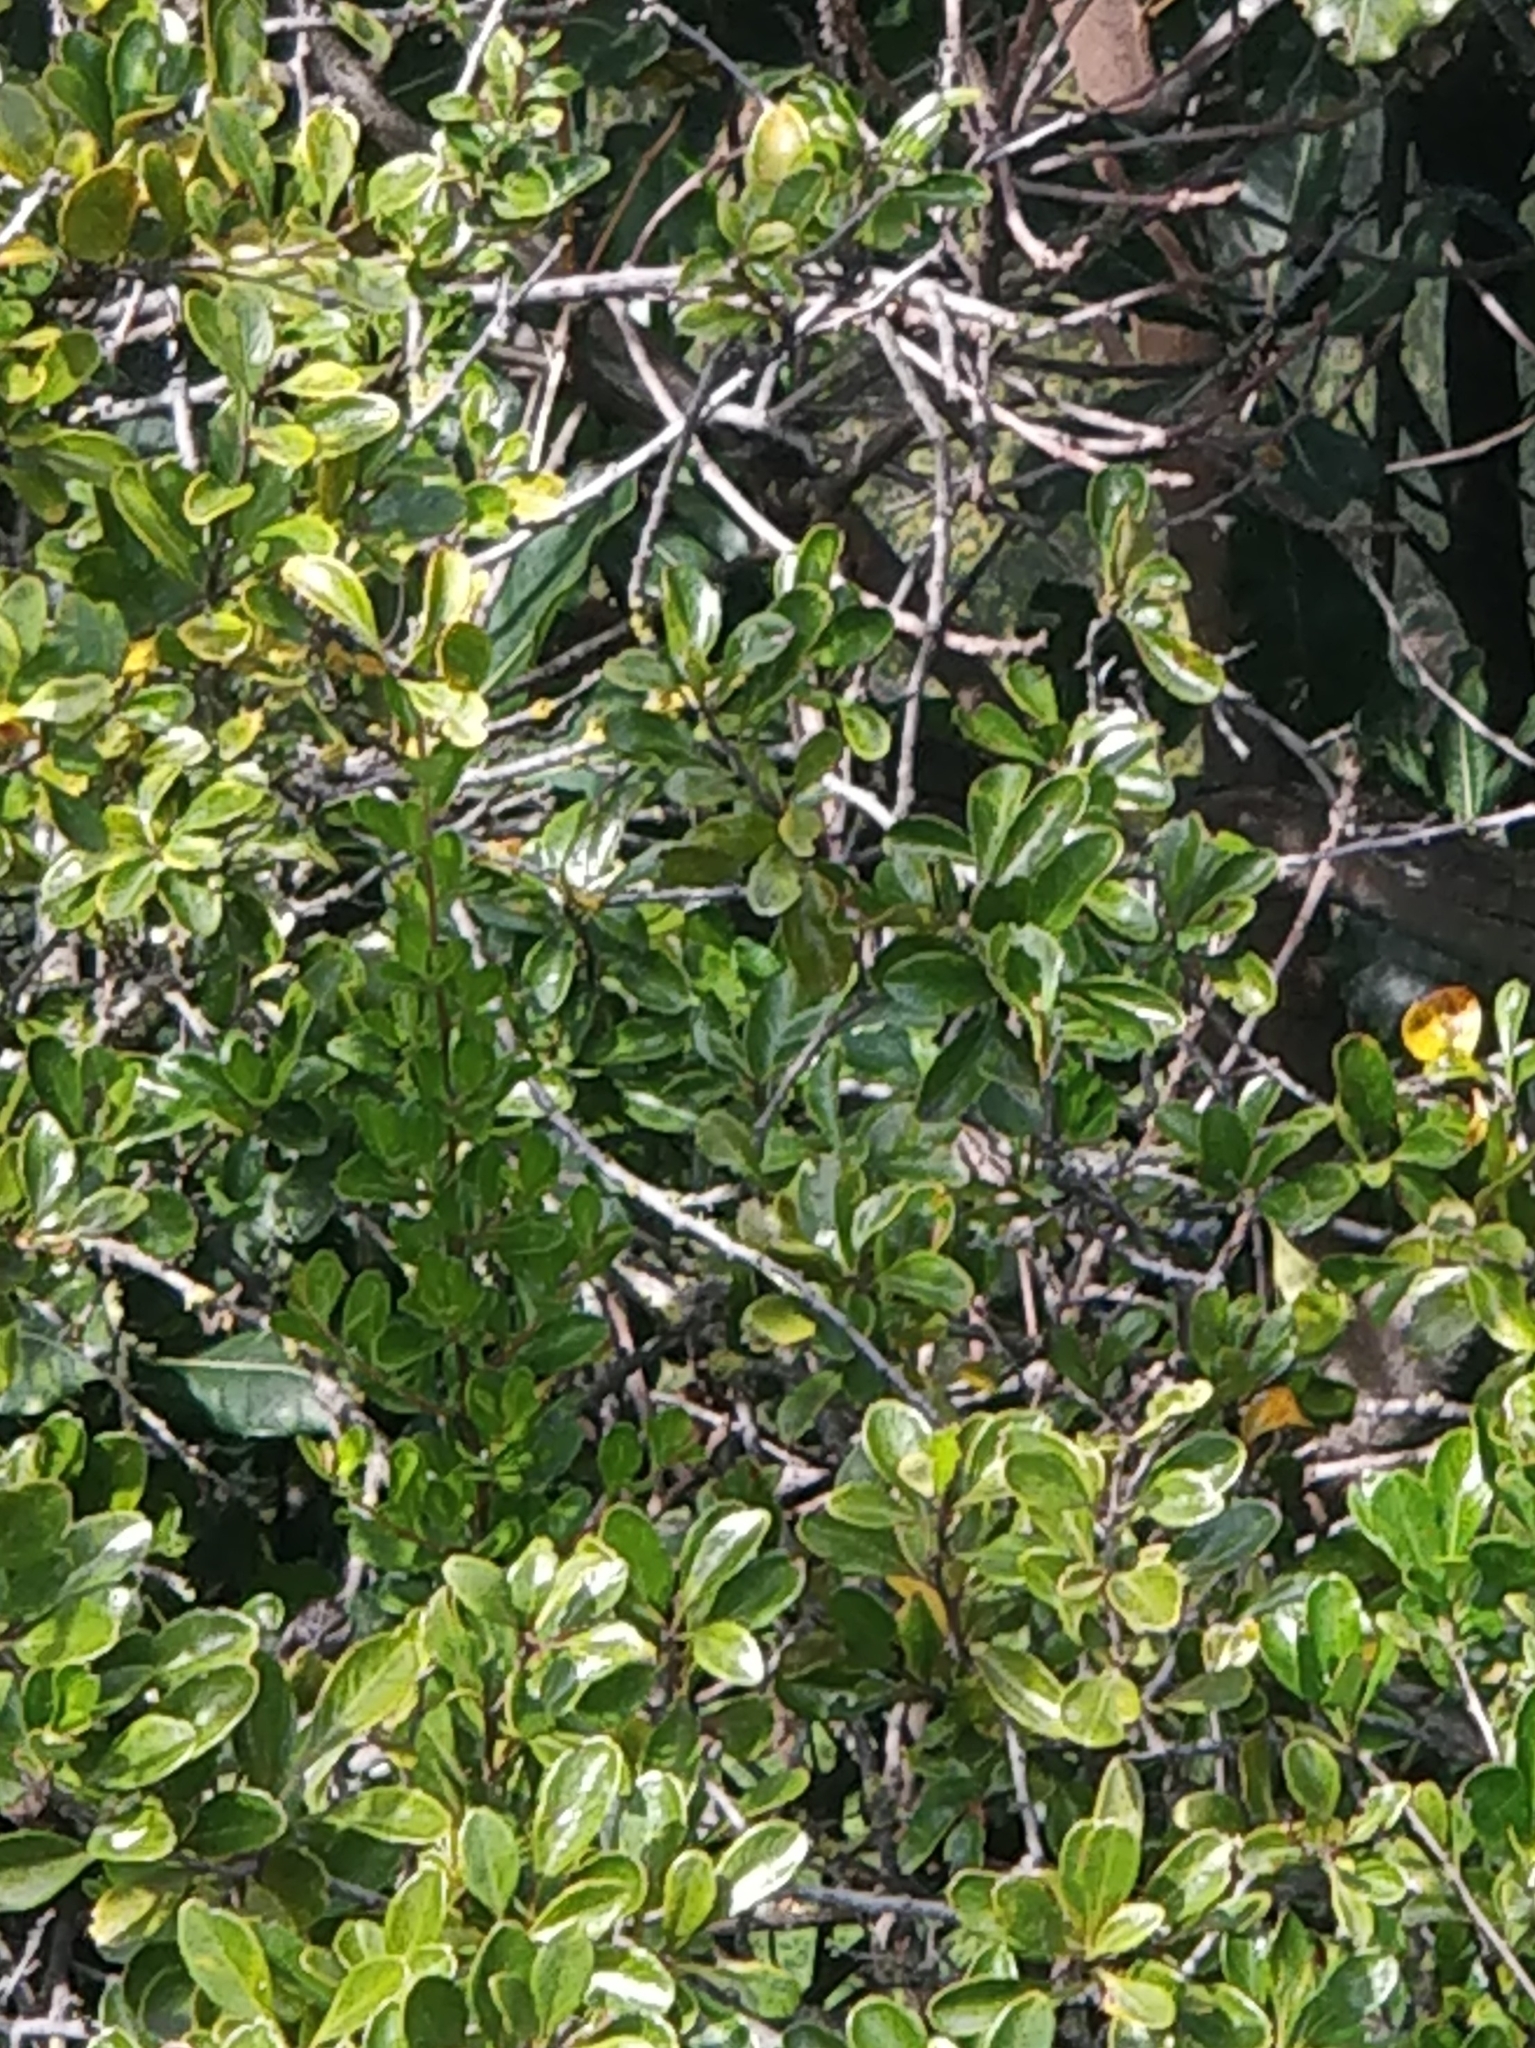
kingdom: Plantae
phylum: Tracheophyta
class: Magnoliopsida
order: Rosales
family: Rosaceae
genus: Chamaemeles
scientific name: Chamaemeles coriacea
